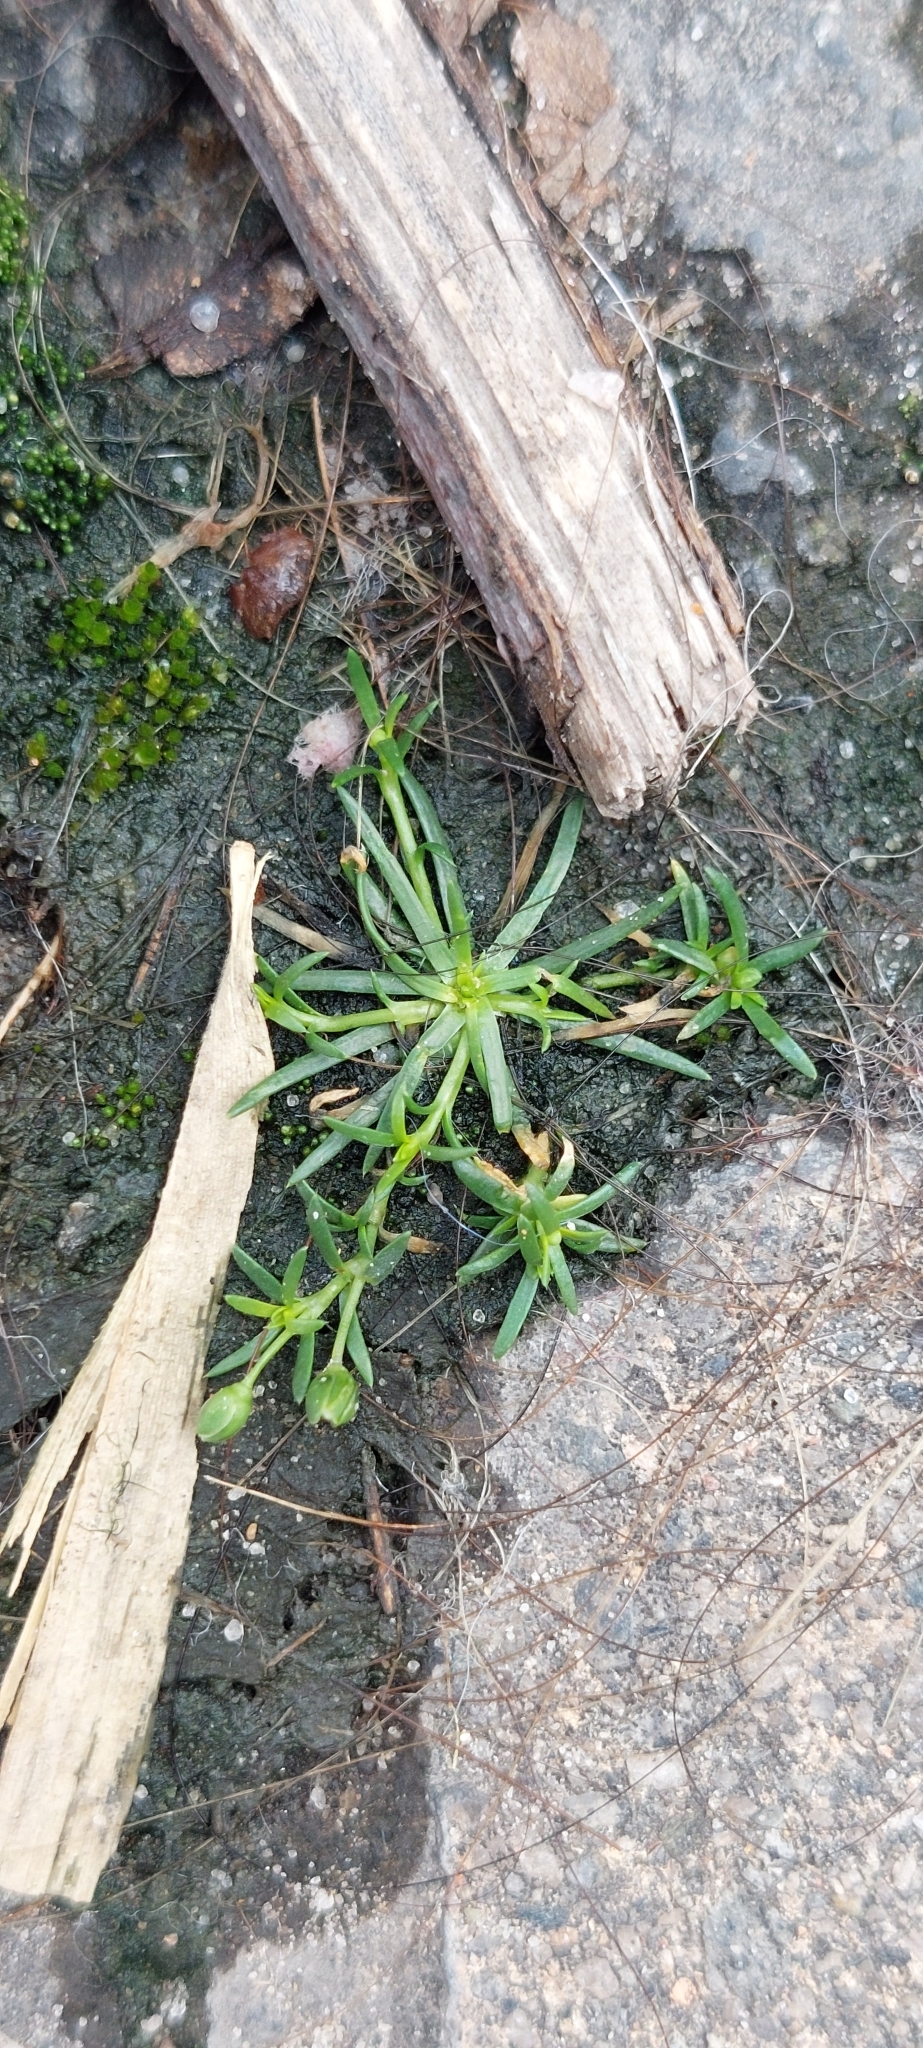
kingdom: Plantae
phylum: Tracheophyta
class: Magnoliopsida
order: Caryophyllales
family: Caryophyllaceae
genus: Sagina
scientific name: Sagina procumbens
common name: Procumbent pearlwort
